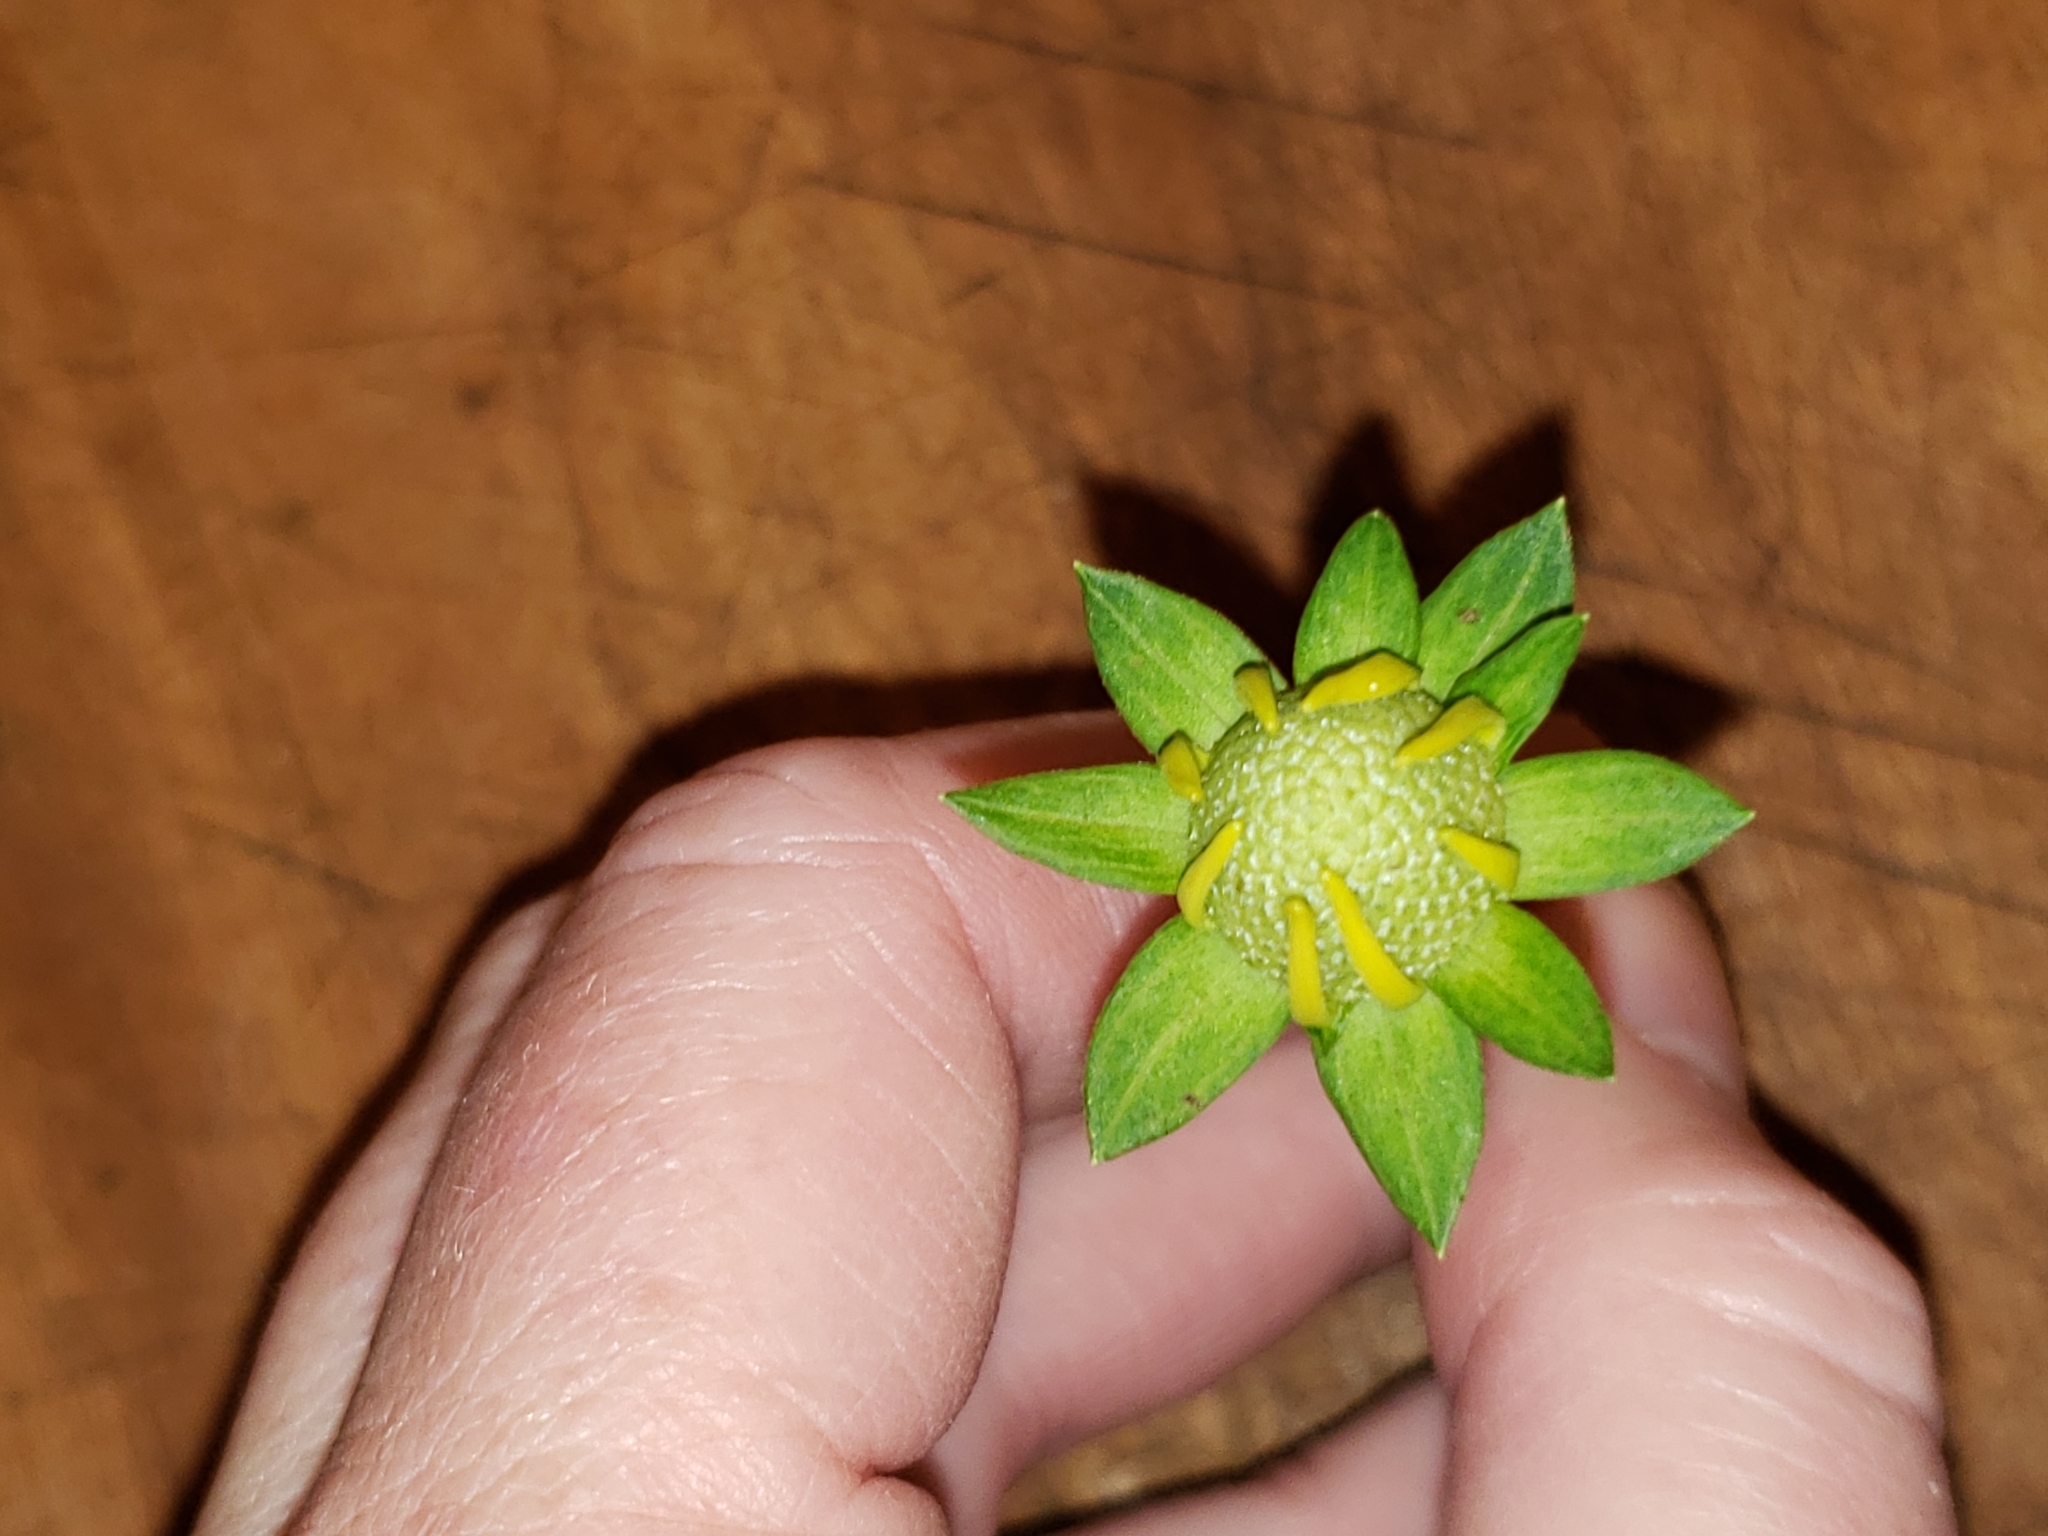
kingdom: Plantae
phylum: Tracheophyta
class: Magnoliopsida
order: Asterales
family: Asteraceae
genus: Rudbeckia
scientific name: Rudbeckia laciniata
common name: Coneflower
